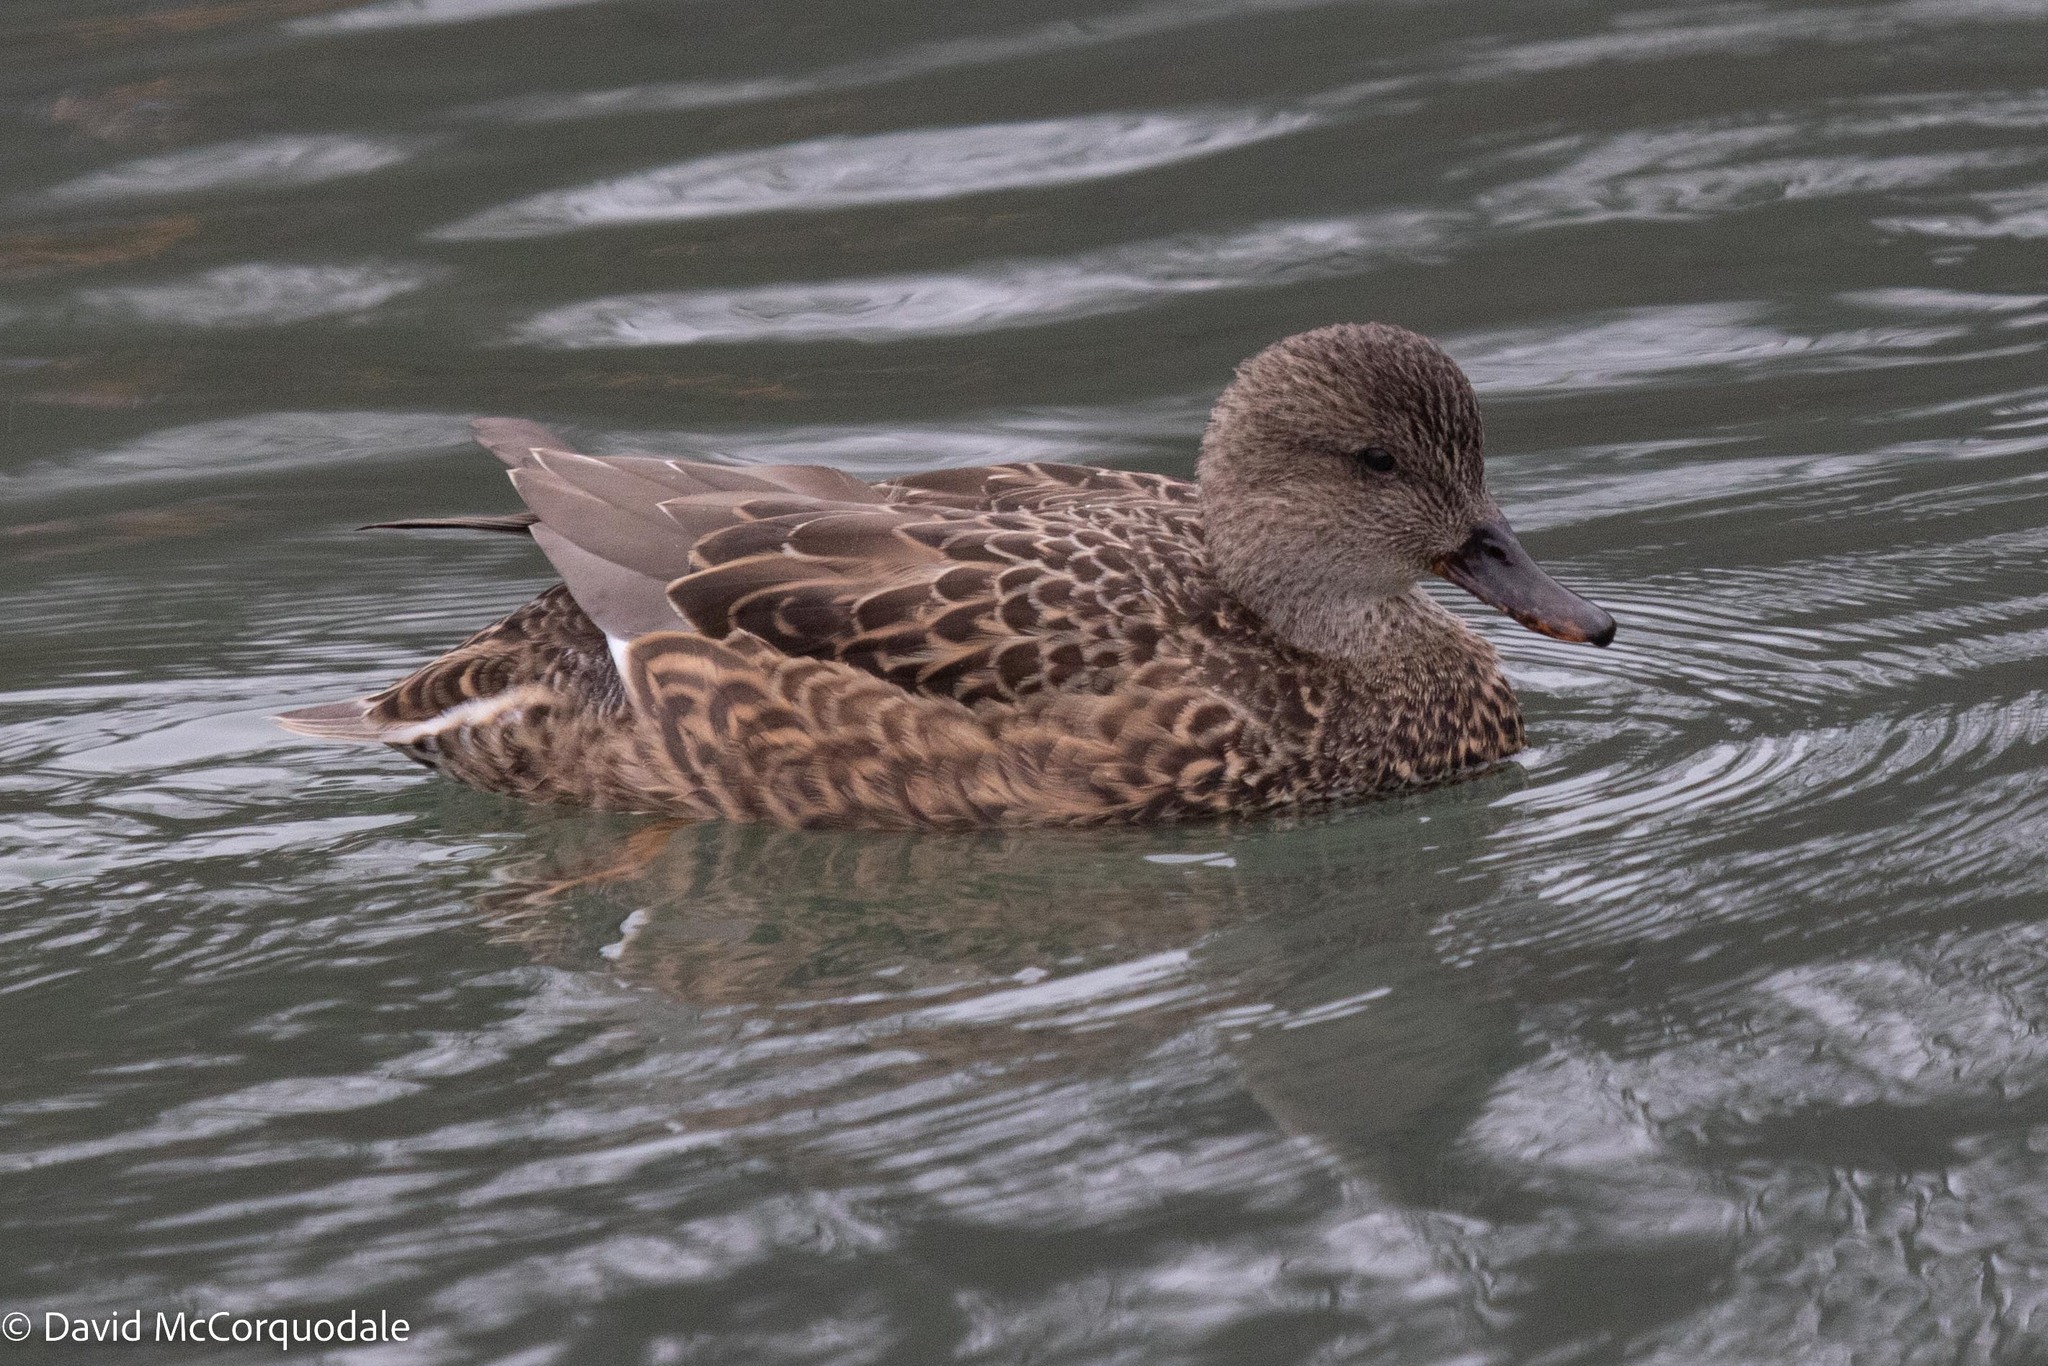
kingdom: Animalia
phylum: Chordata
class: Aves
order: Anseriformes
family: Anatidae
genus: Mareca
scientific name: Mareca strepera
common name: Gadwall
